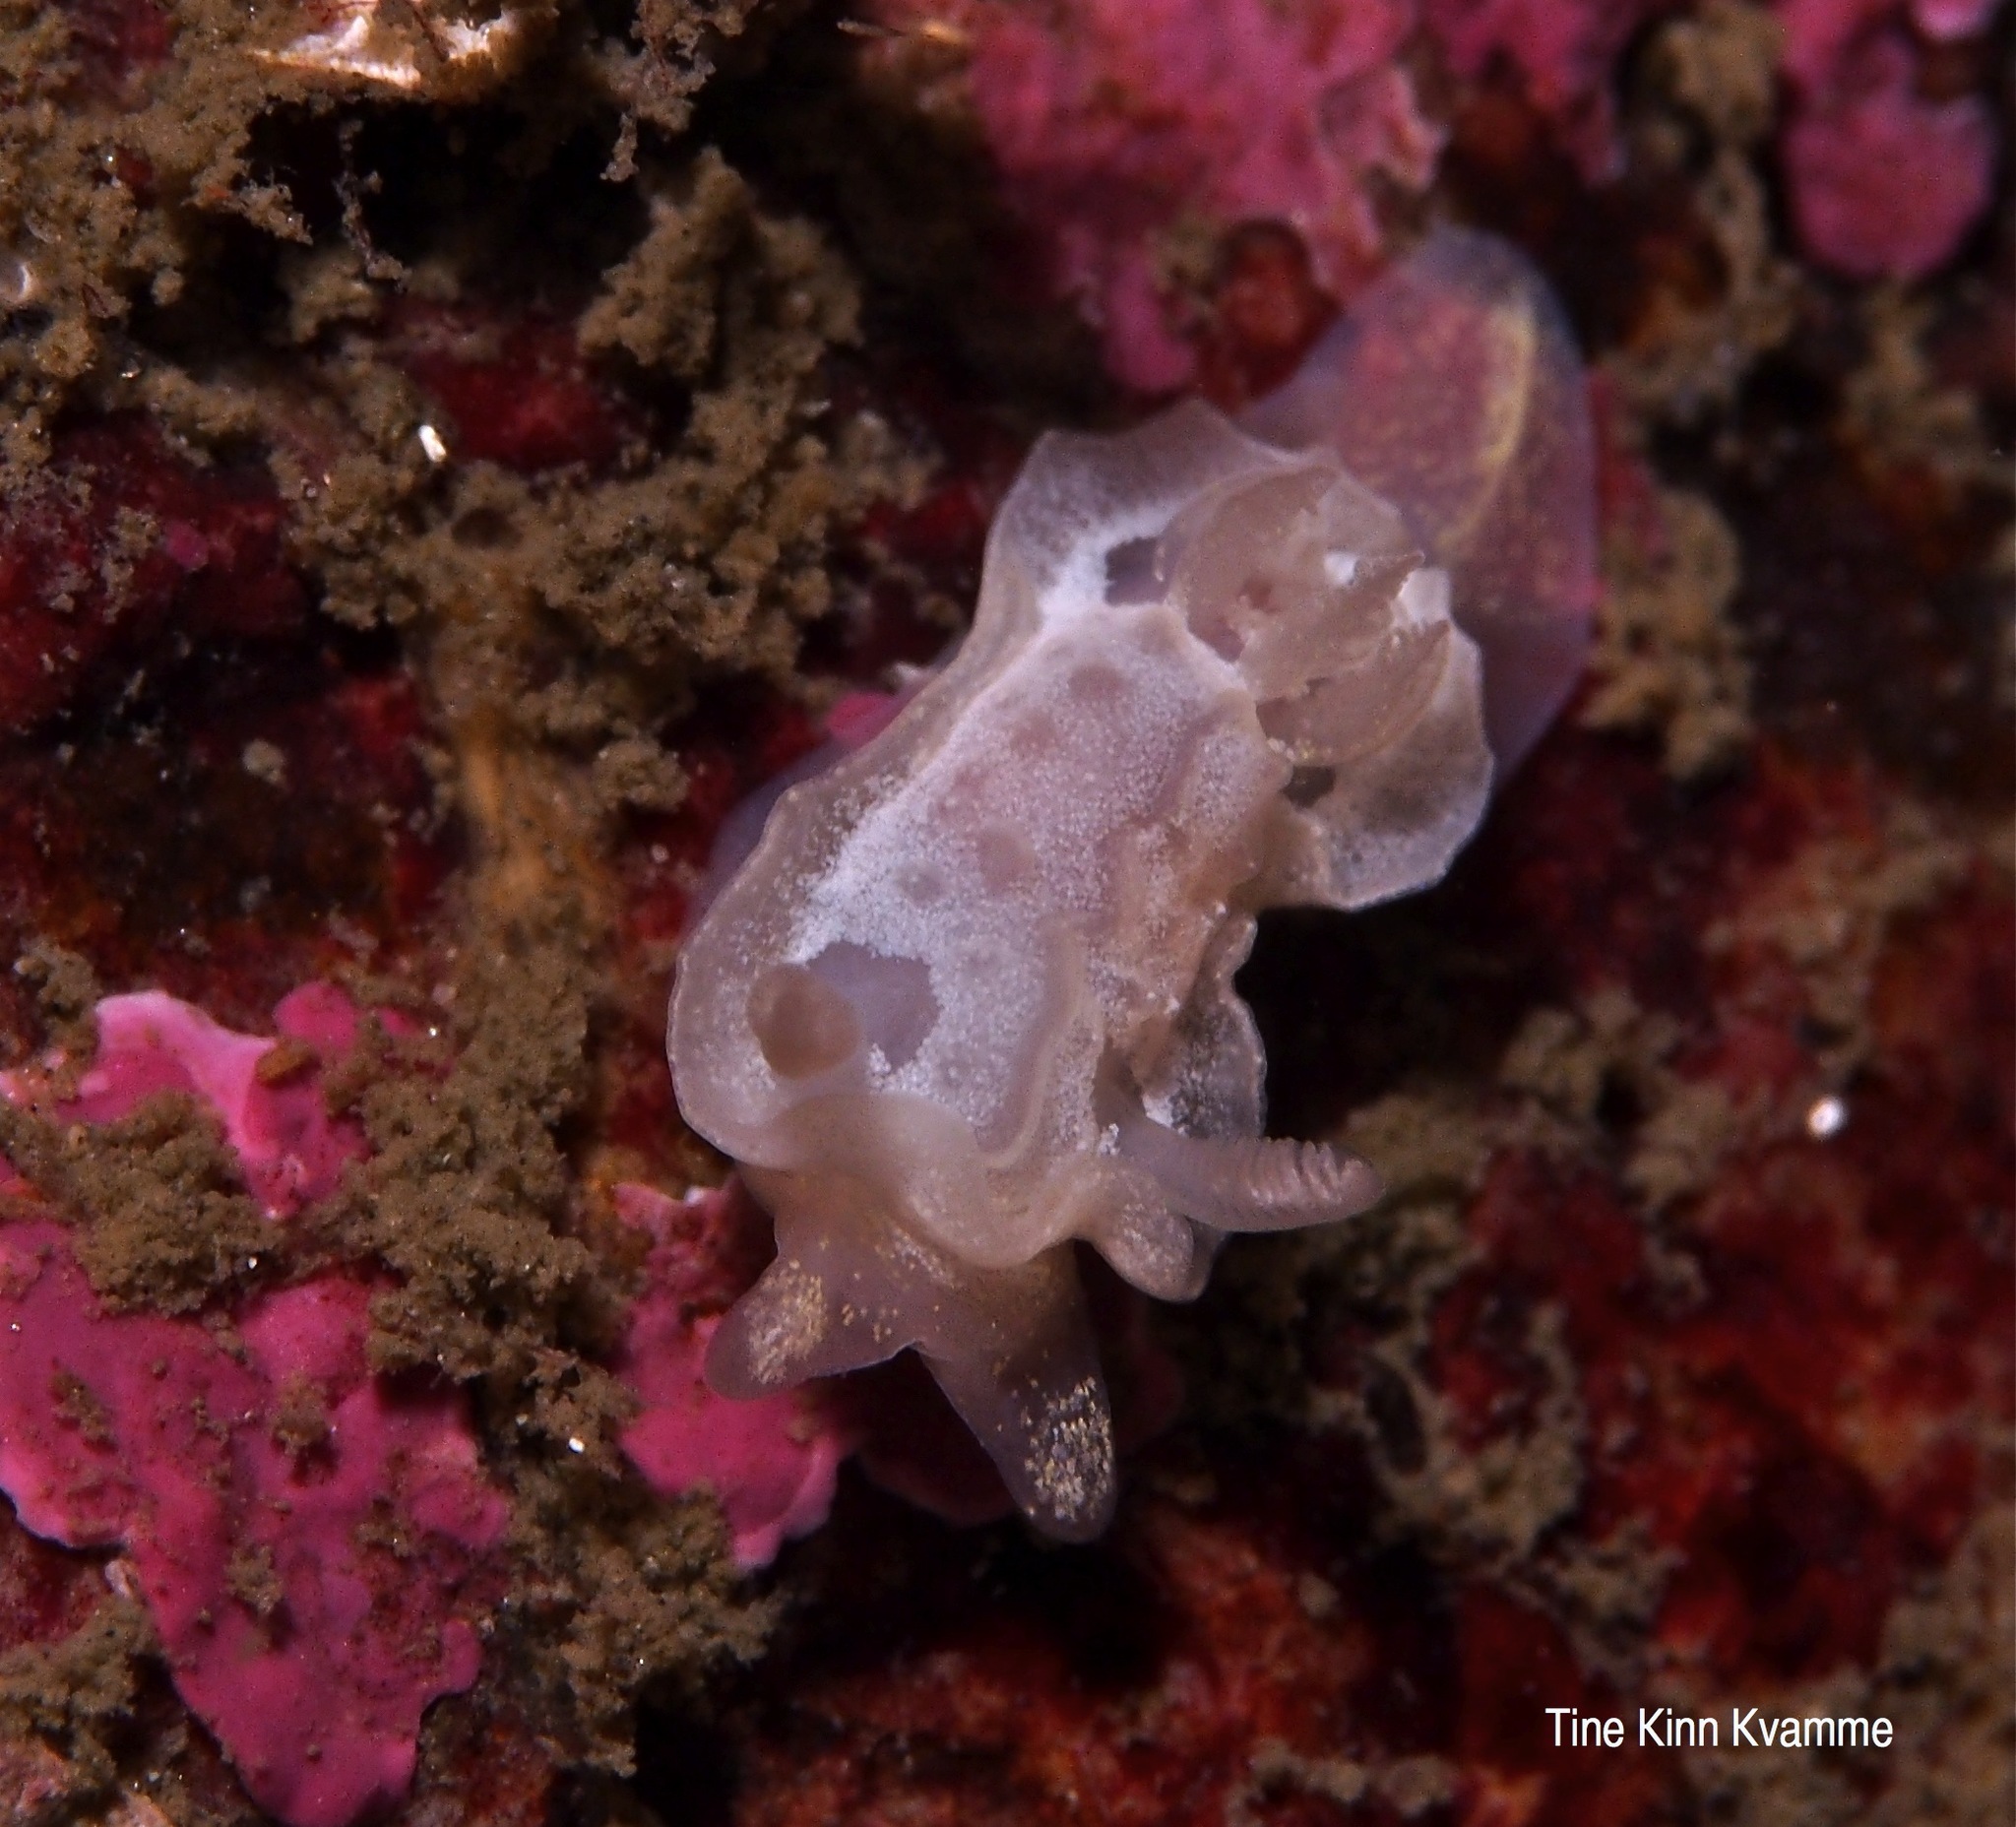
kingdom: Animalia
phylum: Mollusca
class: Gastropoda
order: Nudibranchia
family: Goniodorididae
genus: Okenia
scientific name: Okenia
